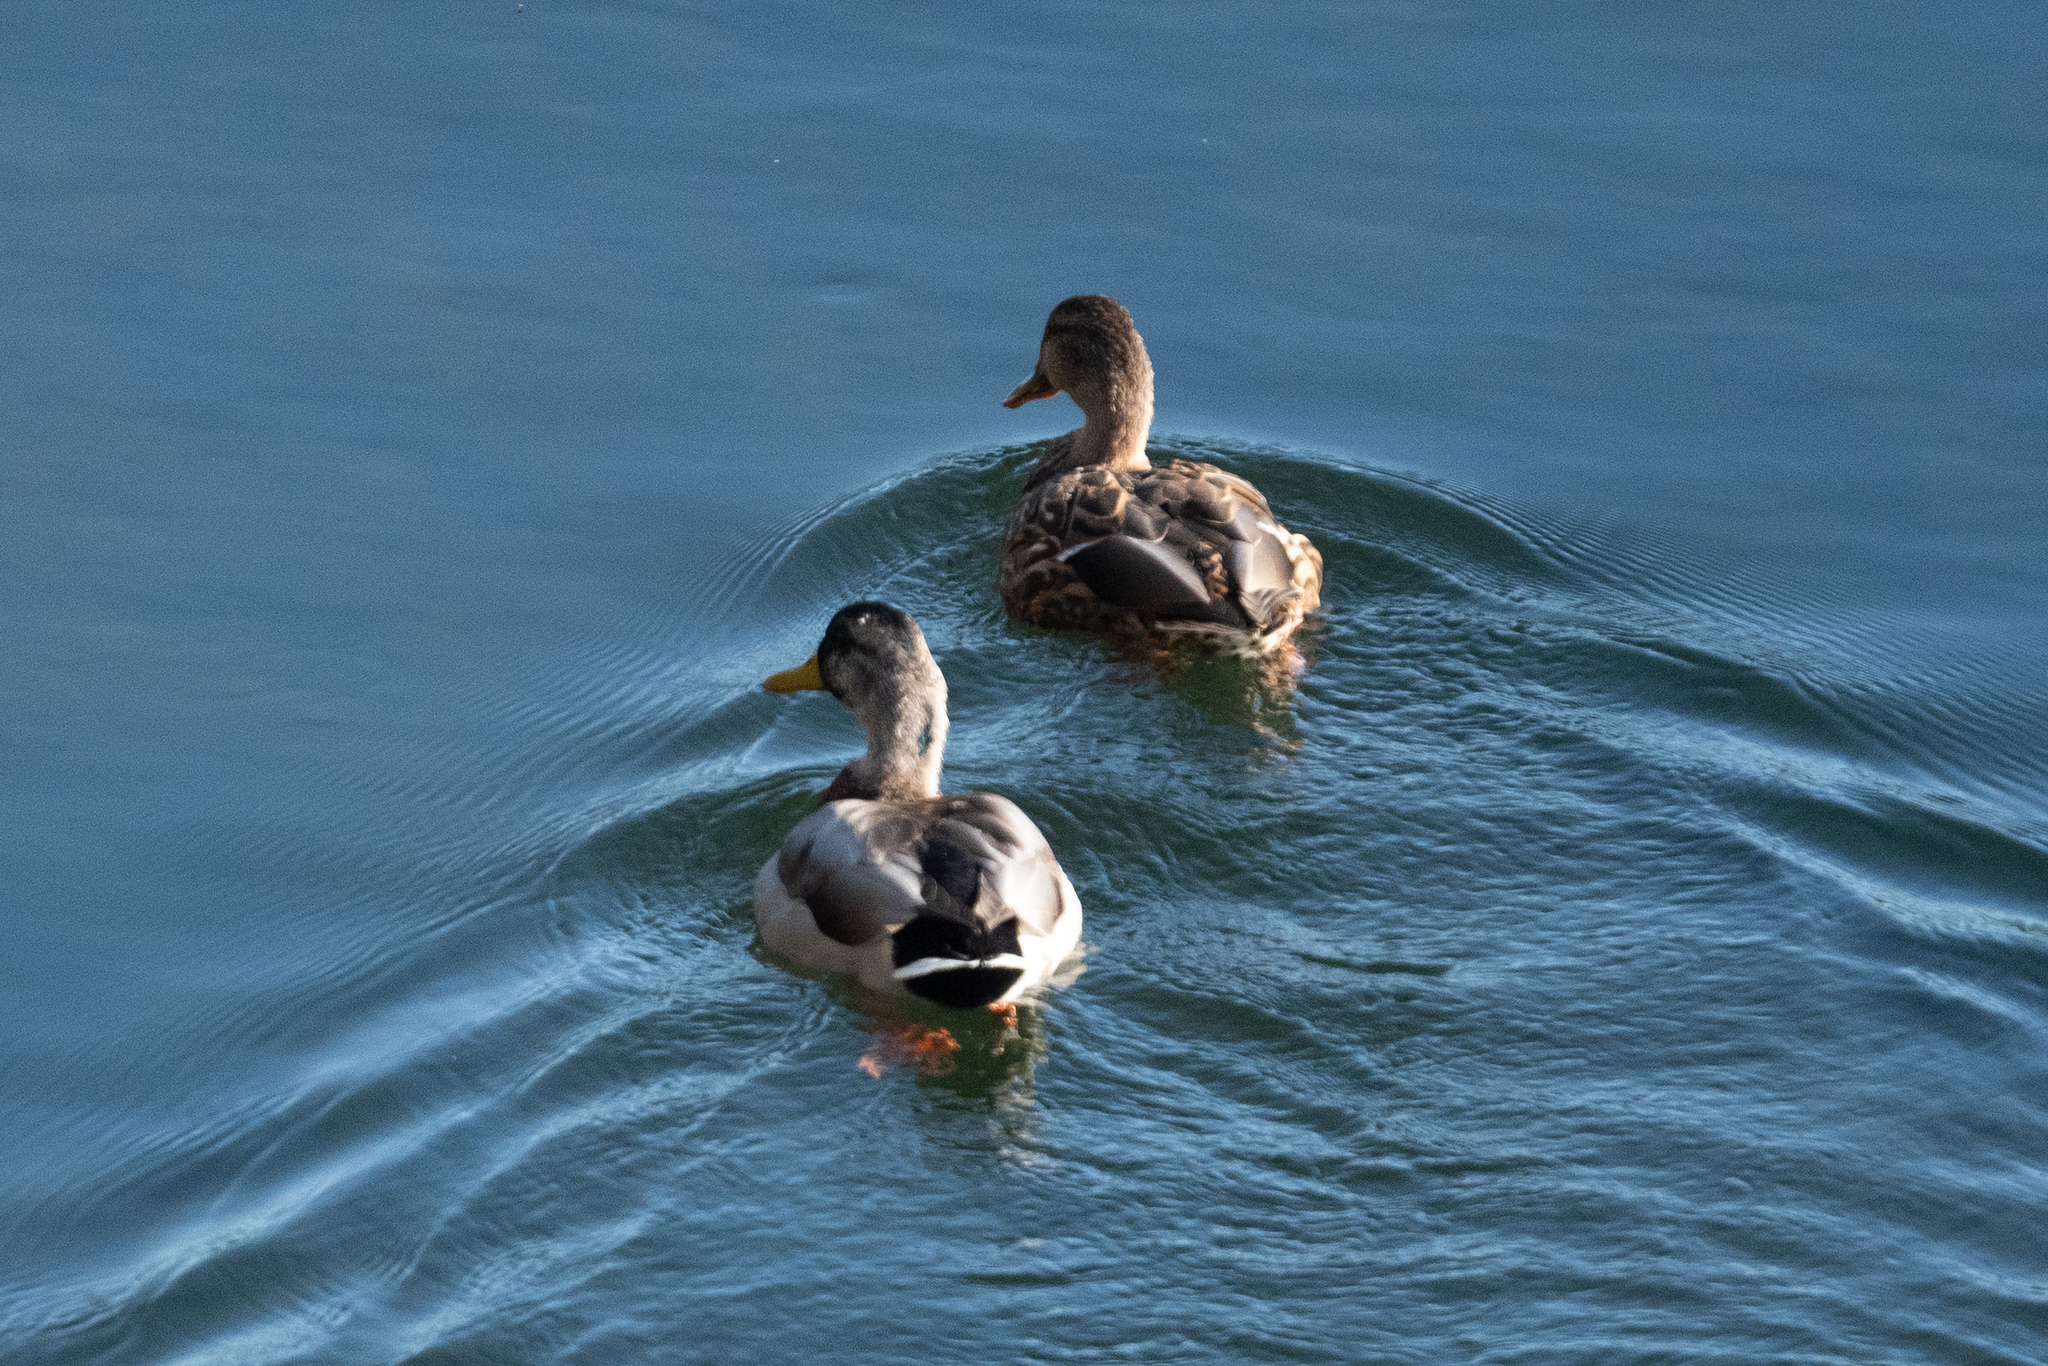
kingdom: Animalia
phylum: Chordata
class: Aves
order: Anseriformes
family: Anatidae
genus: Anas
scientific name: Anas platyrhynchos
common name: Mallard
